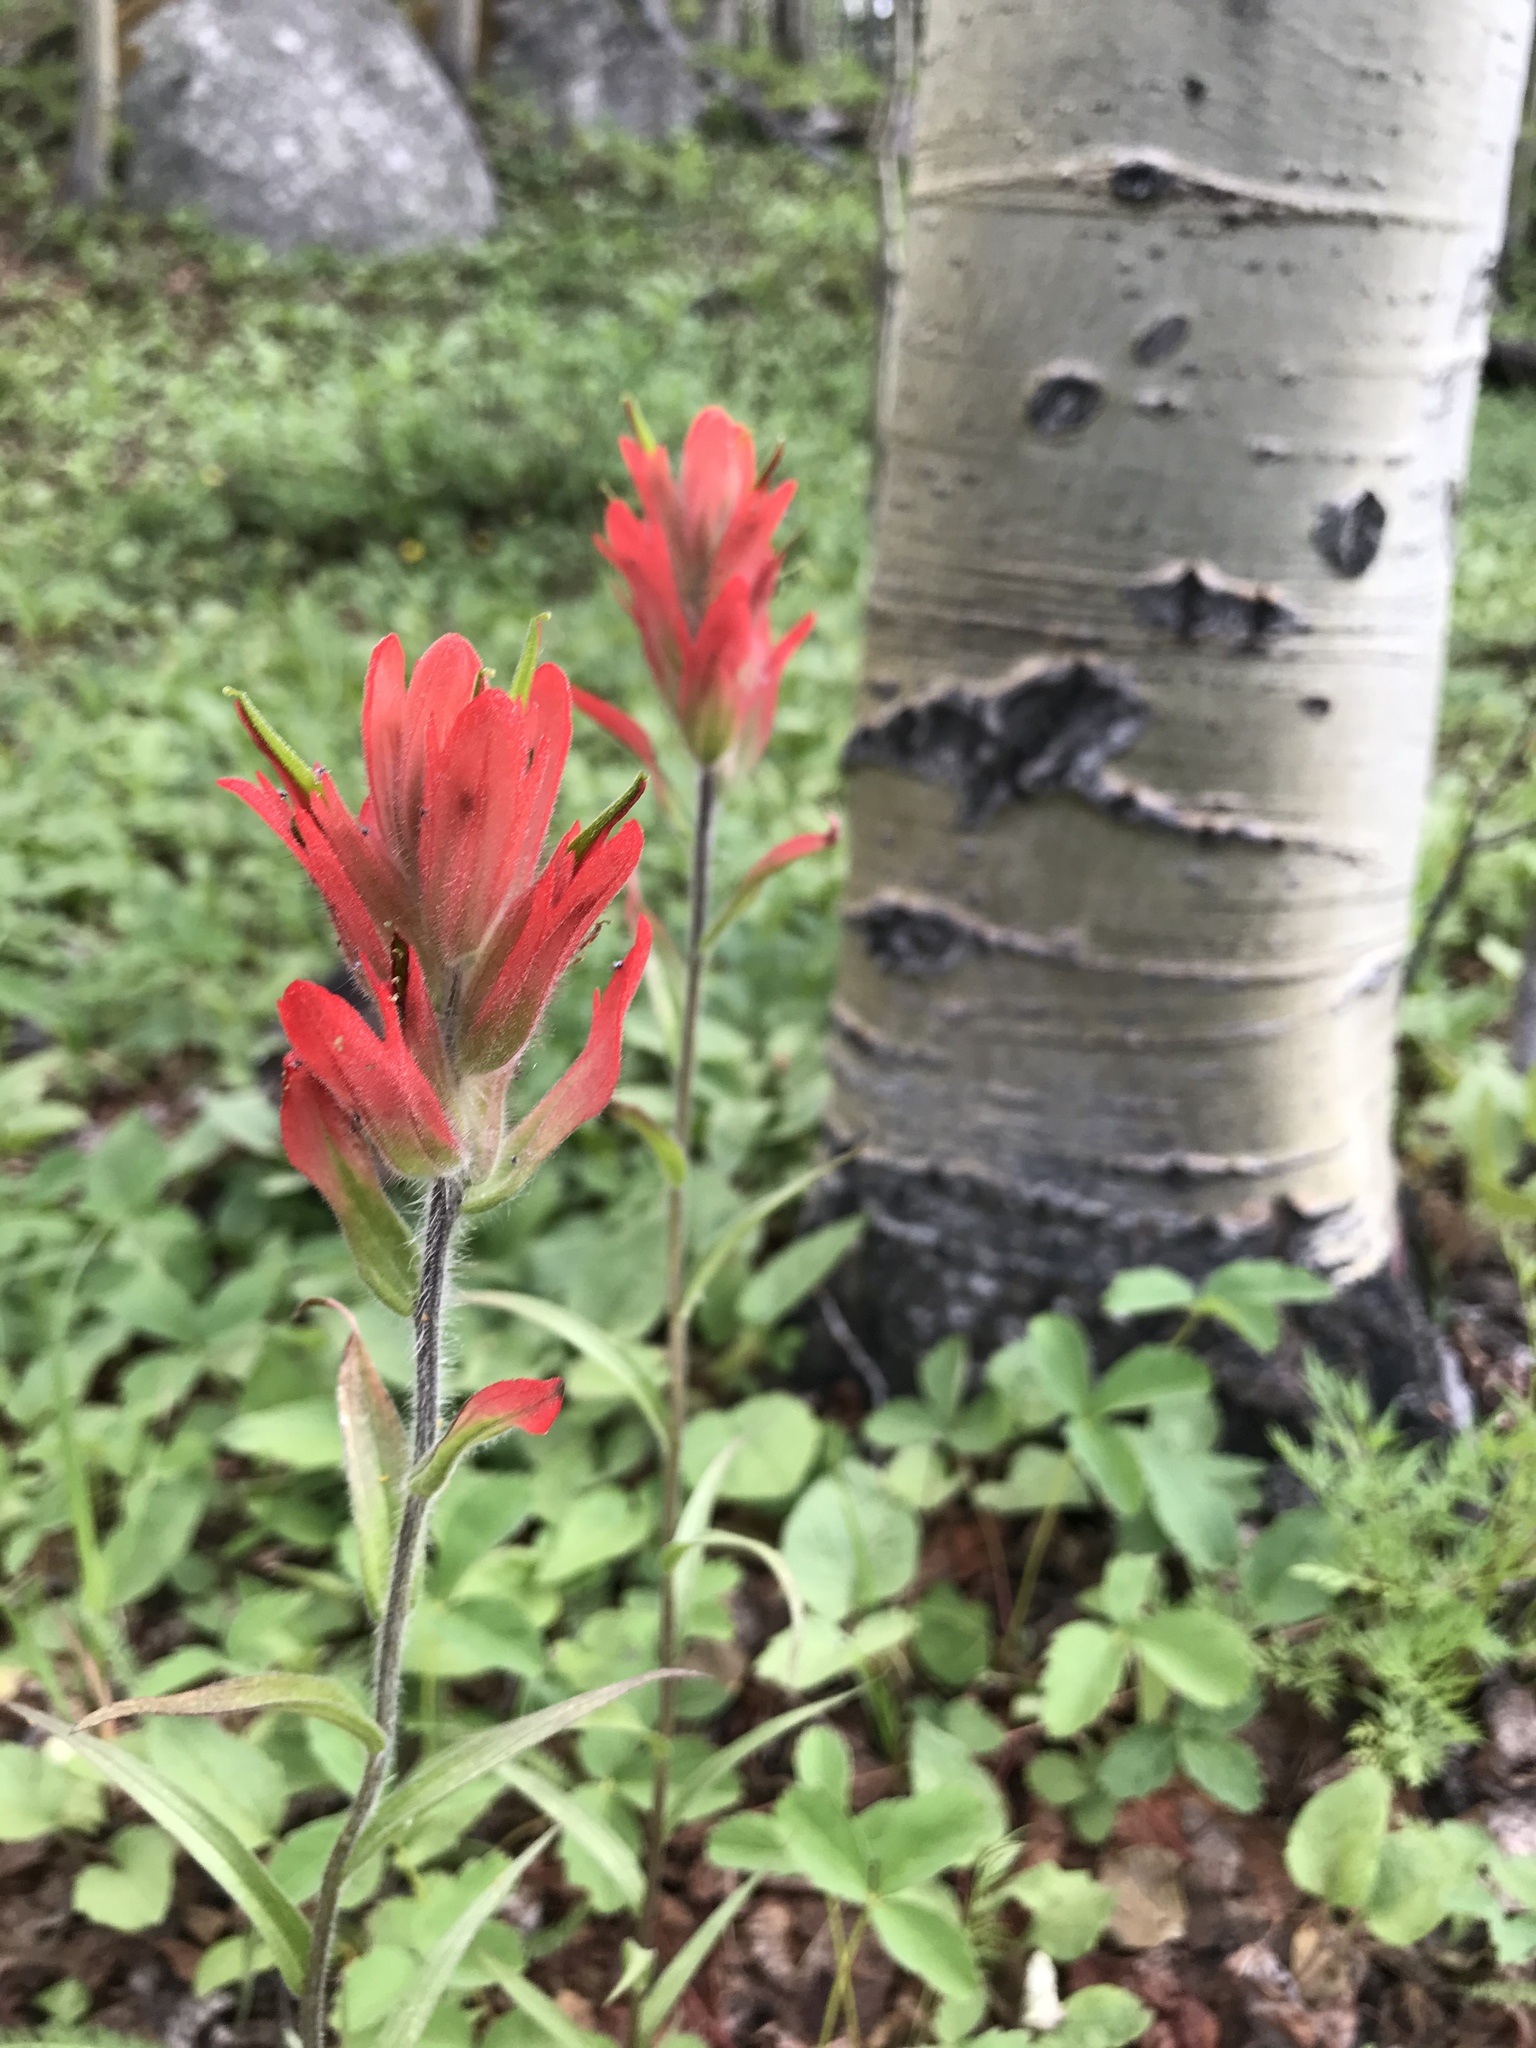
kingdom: Plantae
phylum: Tracheophyta
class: Magnoliopsida
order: Lamiales
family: Orobanchaceae
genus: Castilleja
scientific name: Castilleja miniata
